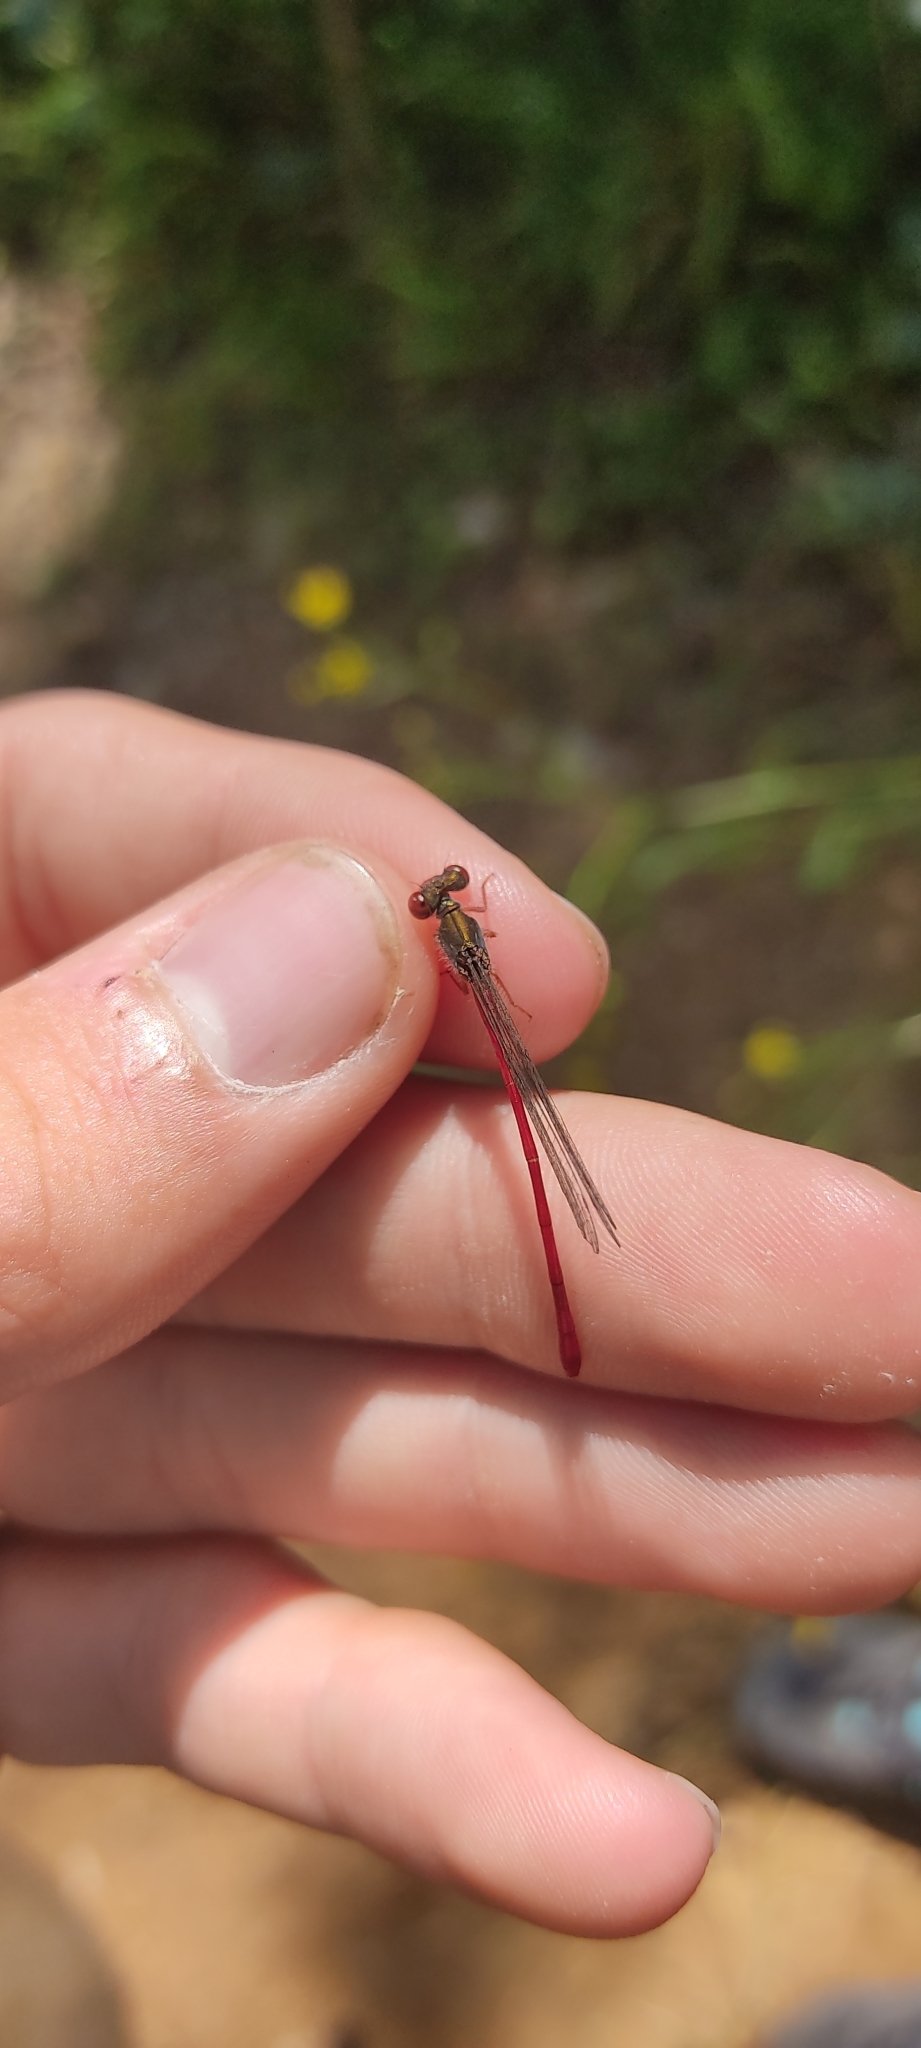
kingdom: Animalia
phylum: Arthropoda
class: Insecta
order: Odonata
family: Coenagrionidae
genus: Ceriagrion
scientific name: Ceriagrion tenellum
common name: Small red damselfly
